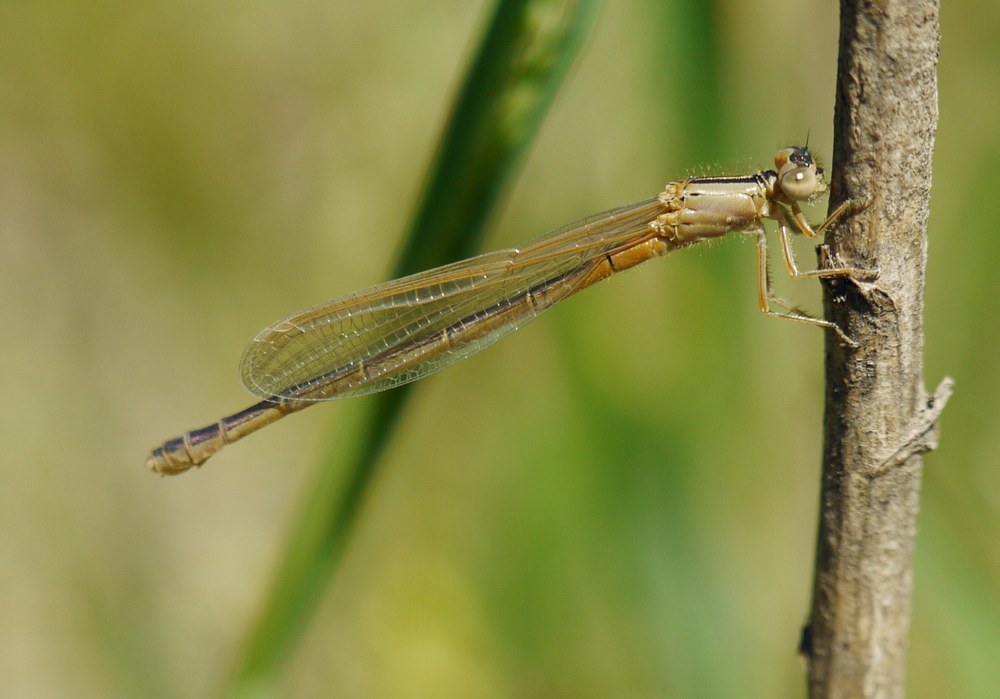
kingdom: Animalia
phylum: Arthropoda
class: Insecta
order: Odonata
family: Coenagrionidae
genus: Ischnura
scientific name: Ischnura pumilio
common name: Scarce blue-tailed damselfly
